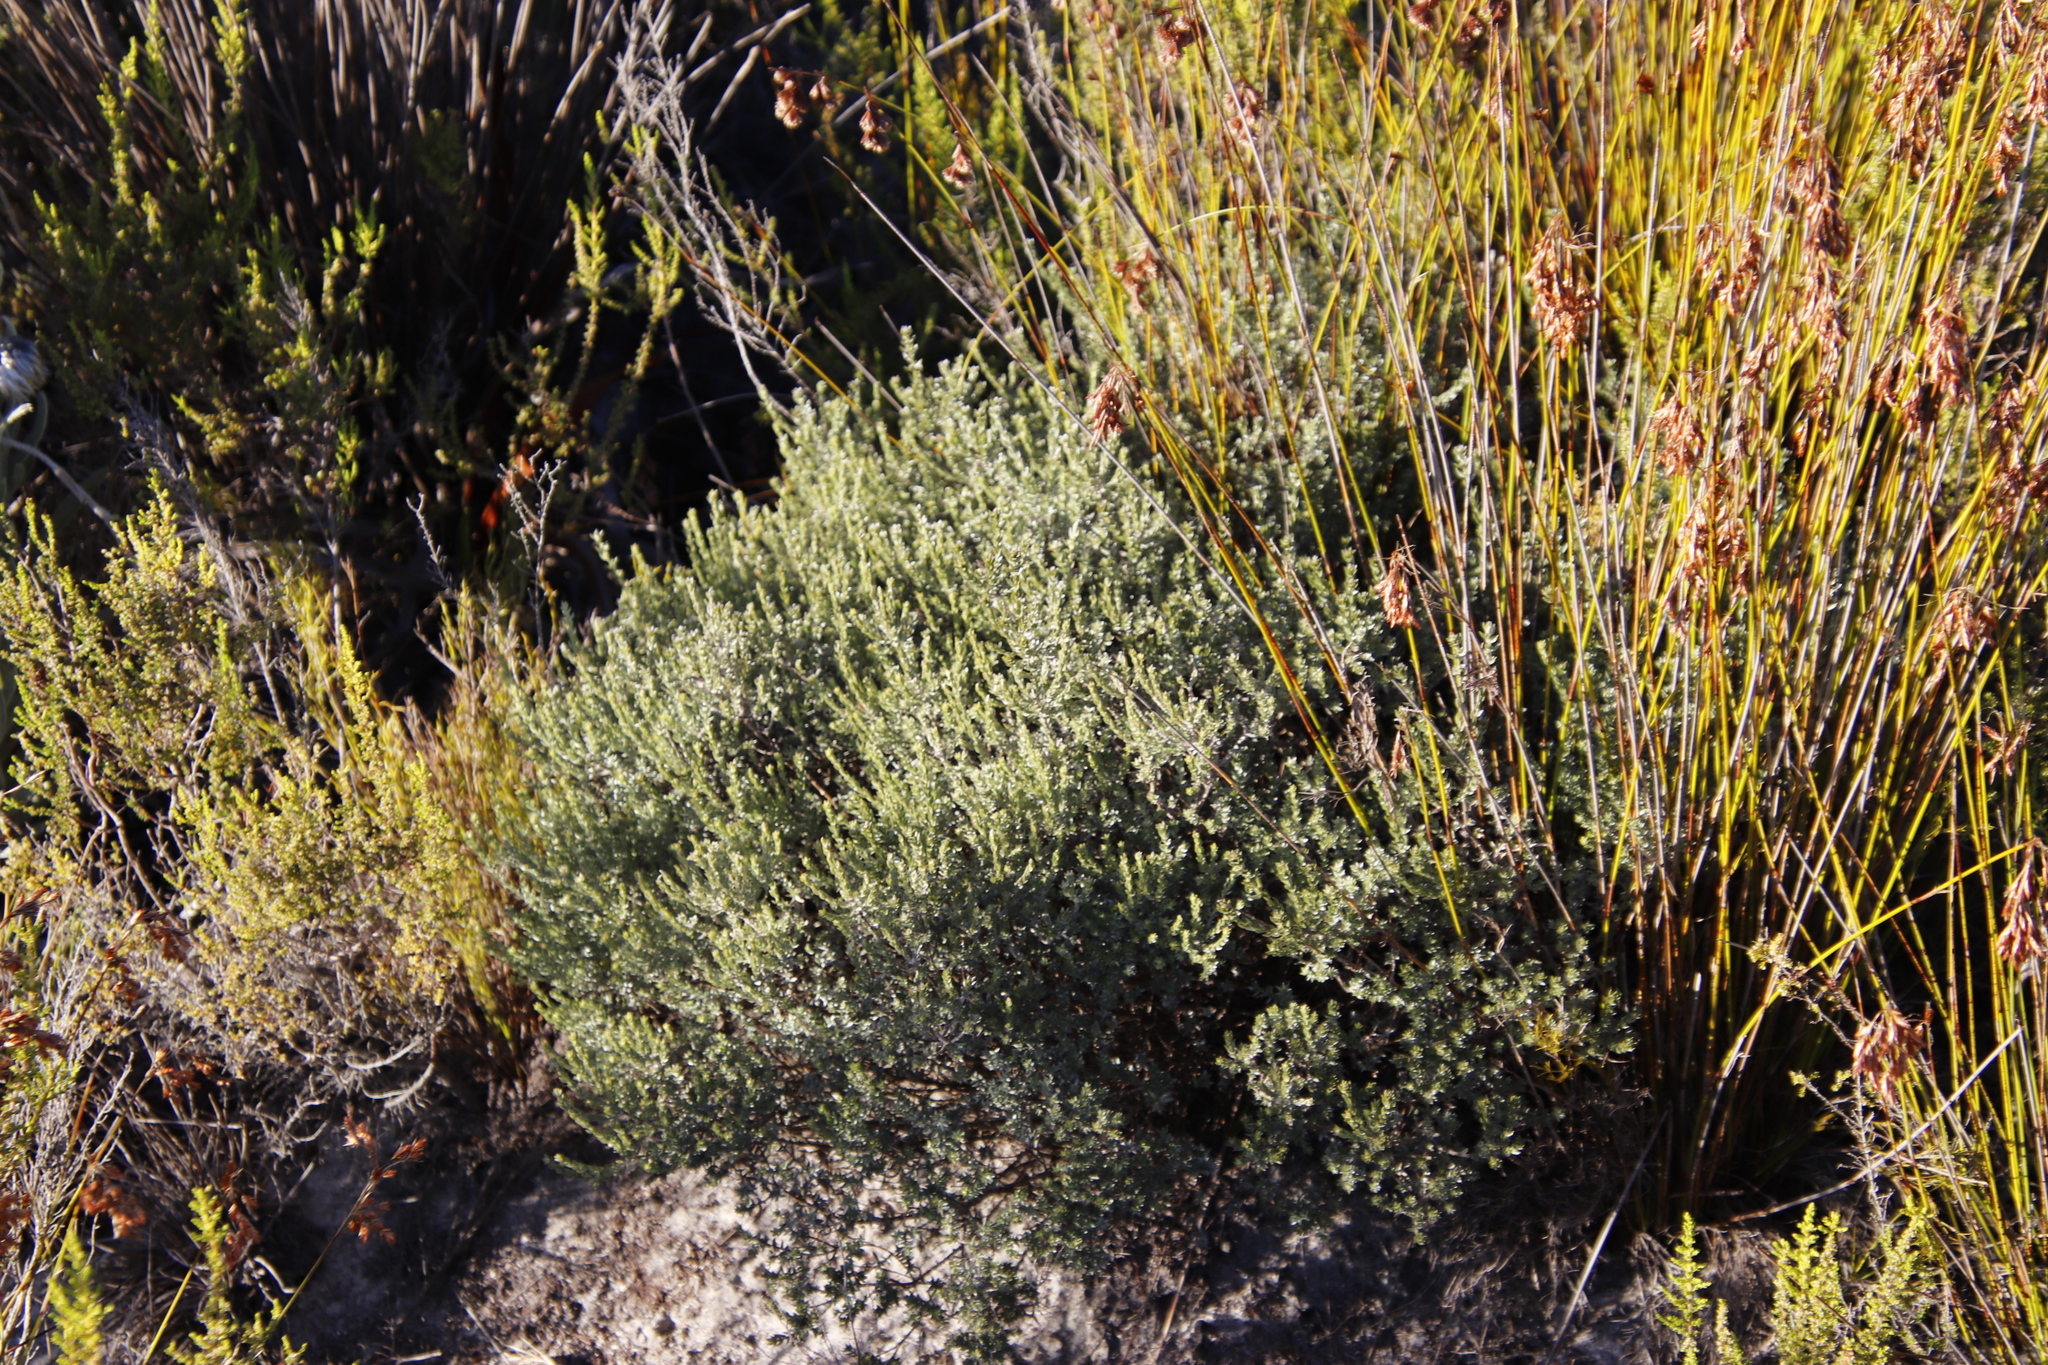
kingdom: Plantae
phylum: Tracheophyta
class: Magnoliopsida
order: Fabales
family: Fabaceae
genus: Amphithalea
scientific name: Amphithalea ericifolia
